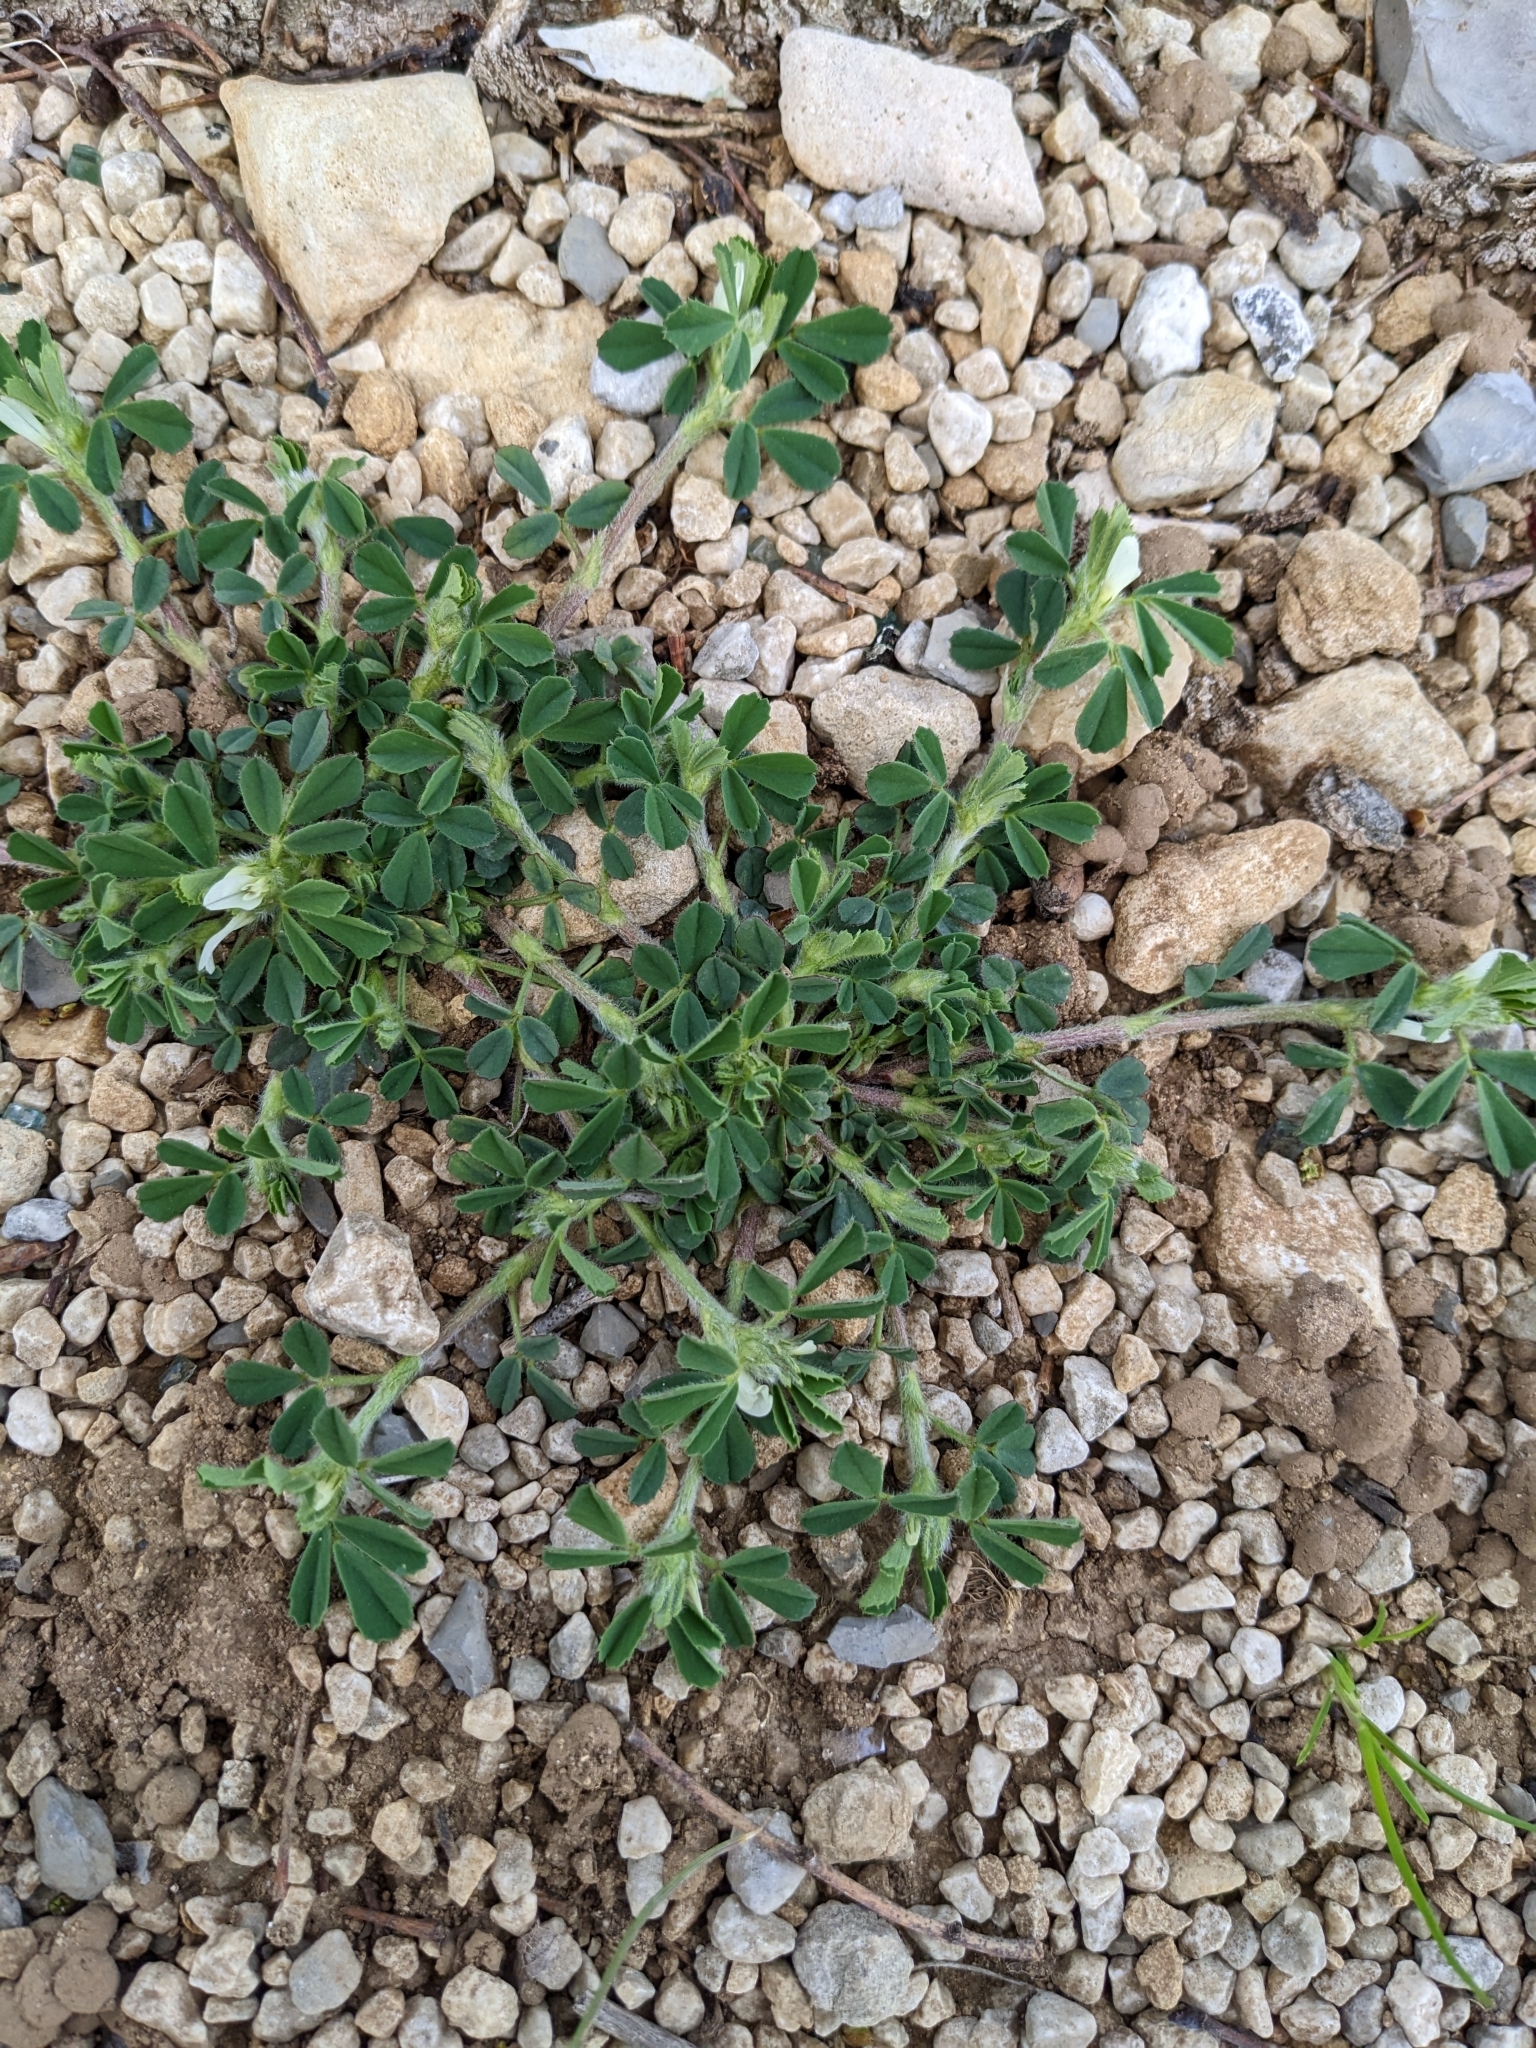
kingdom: Plantae
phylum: Tracheophyta
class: Magnoliopsida
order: Fabales
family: Fabaceae
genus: Trigonella
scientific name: Trigonella gladiata
